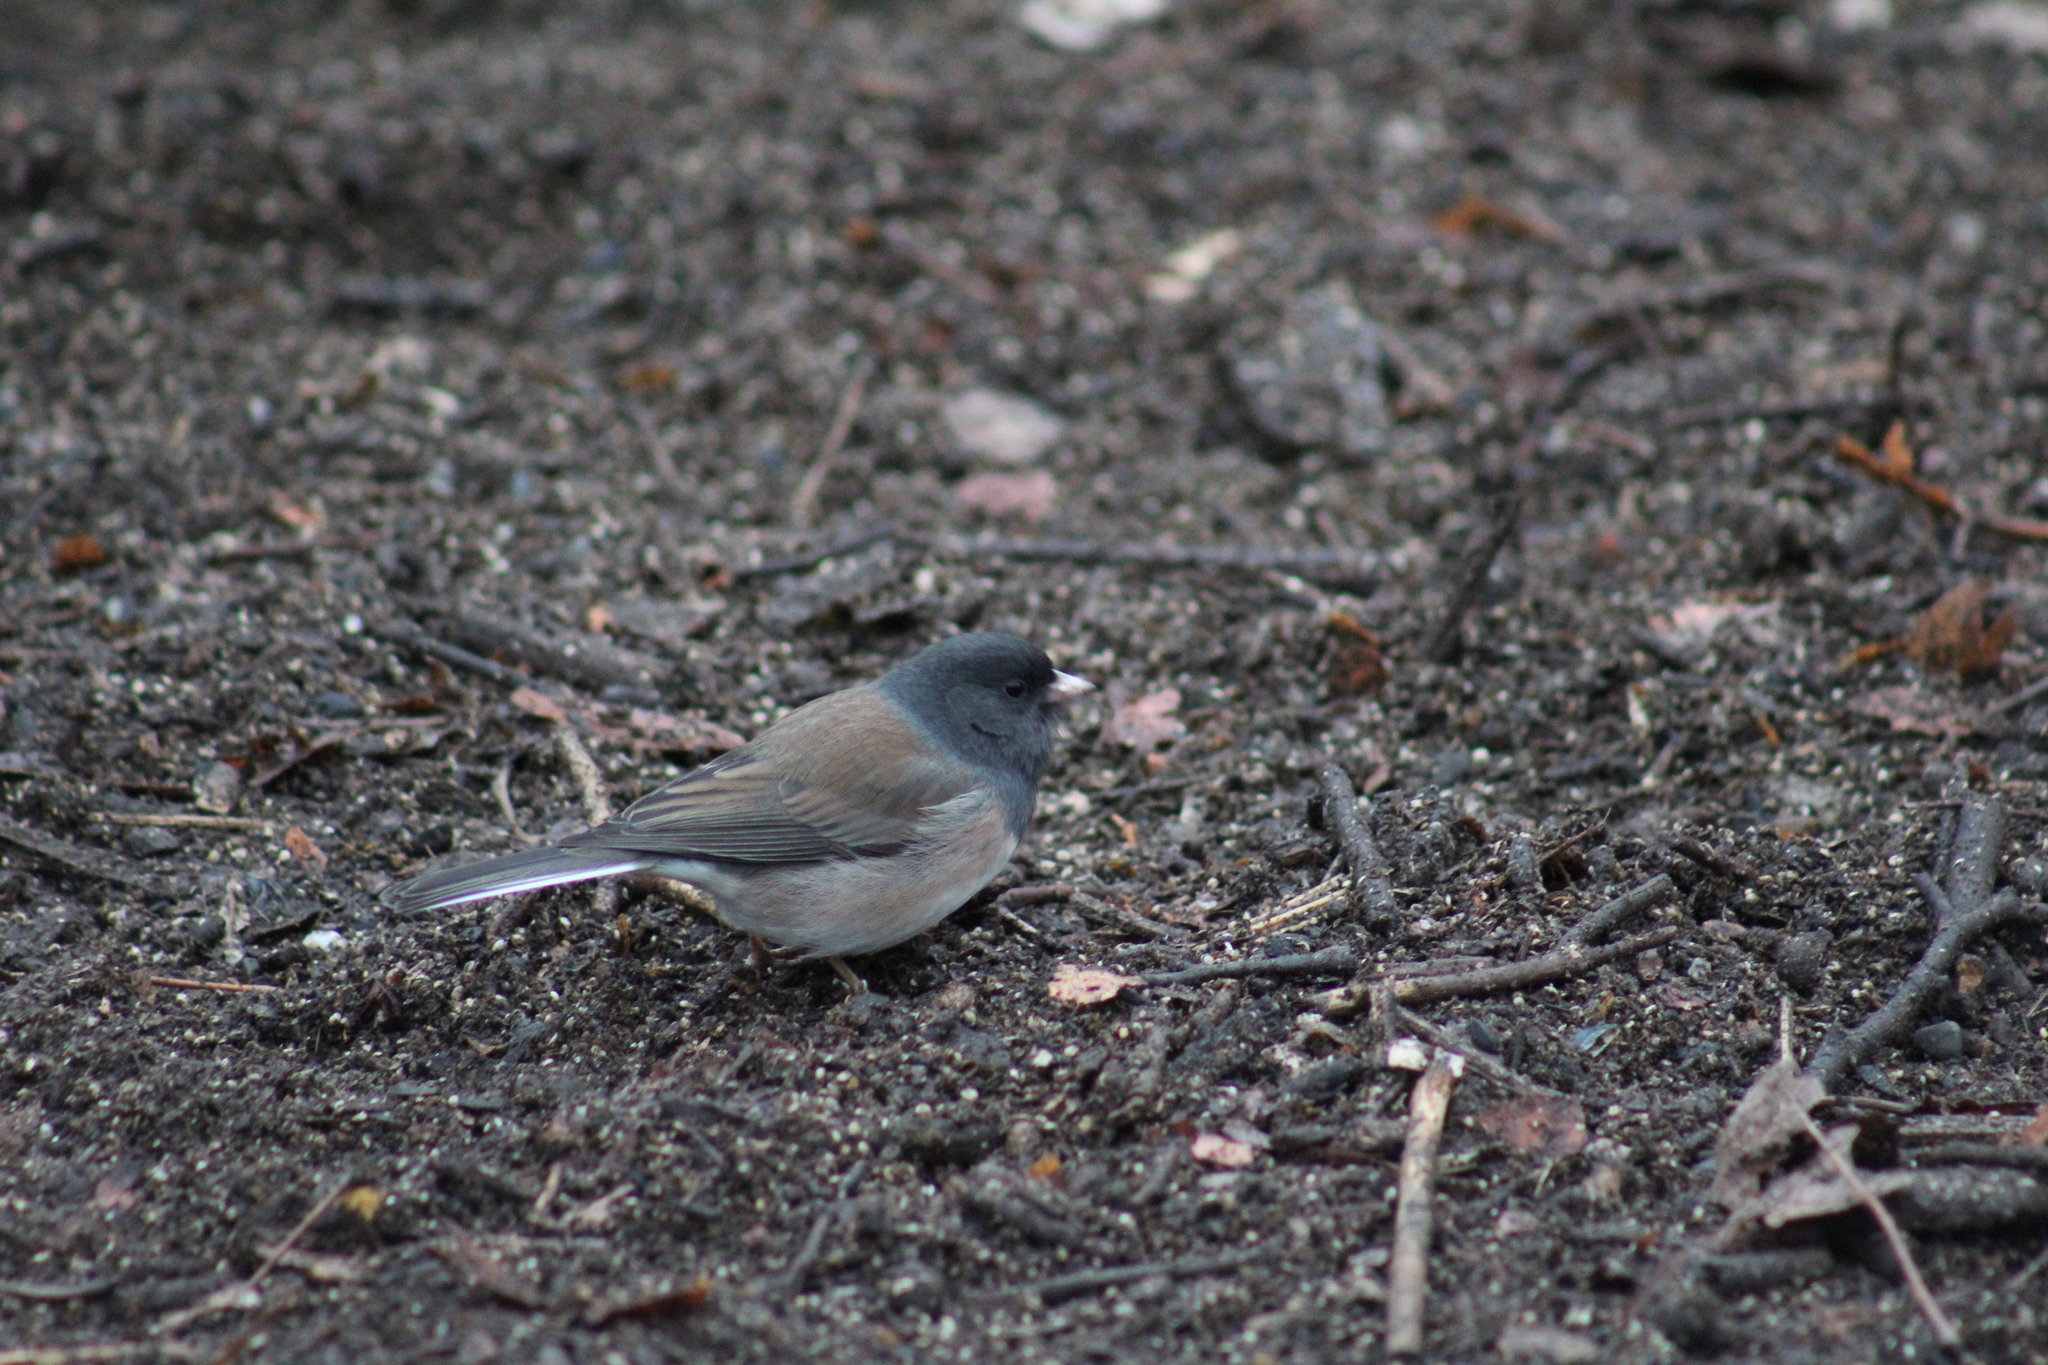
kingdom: Animalia
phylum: Chordata
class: Aves
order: Passeriformes
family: Passerellidae
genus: Junco
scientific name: Junco hyemalis
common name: Dark-eyed junco
